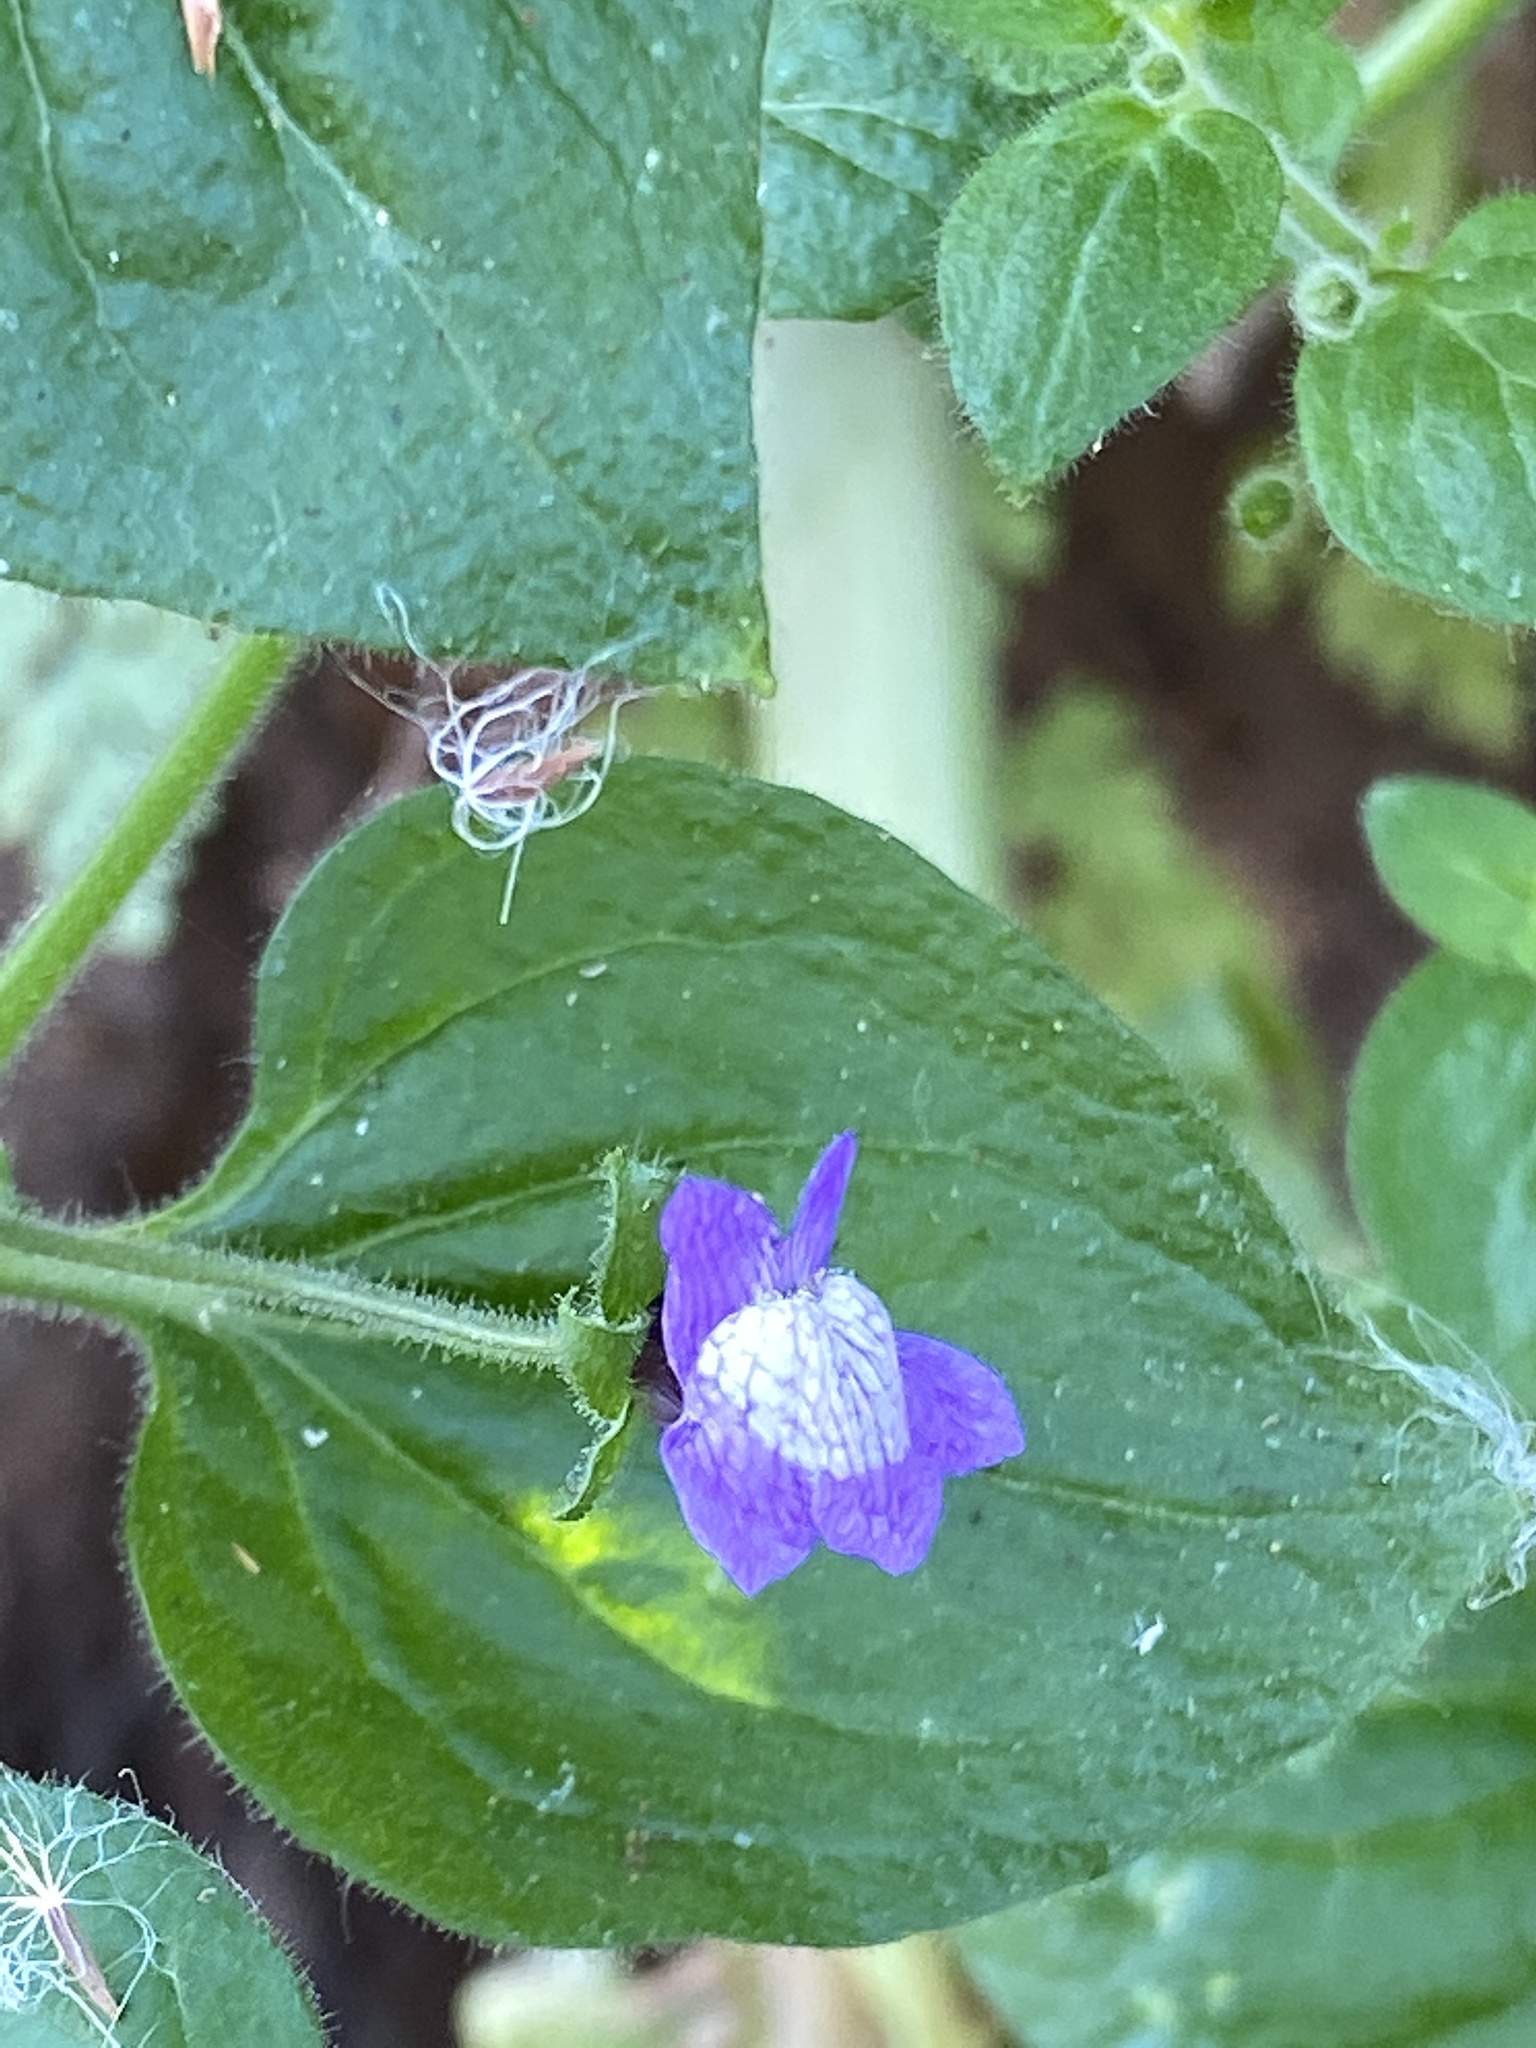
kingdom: Plantae
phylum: Tracheophyta
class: Magnoliopsida
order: Lamiales
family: Plantaginaceae
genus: Sairocarpus
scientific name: Sairocarpus nuttallianus
